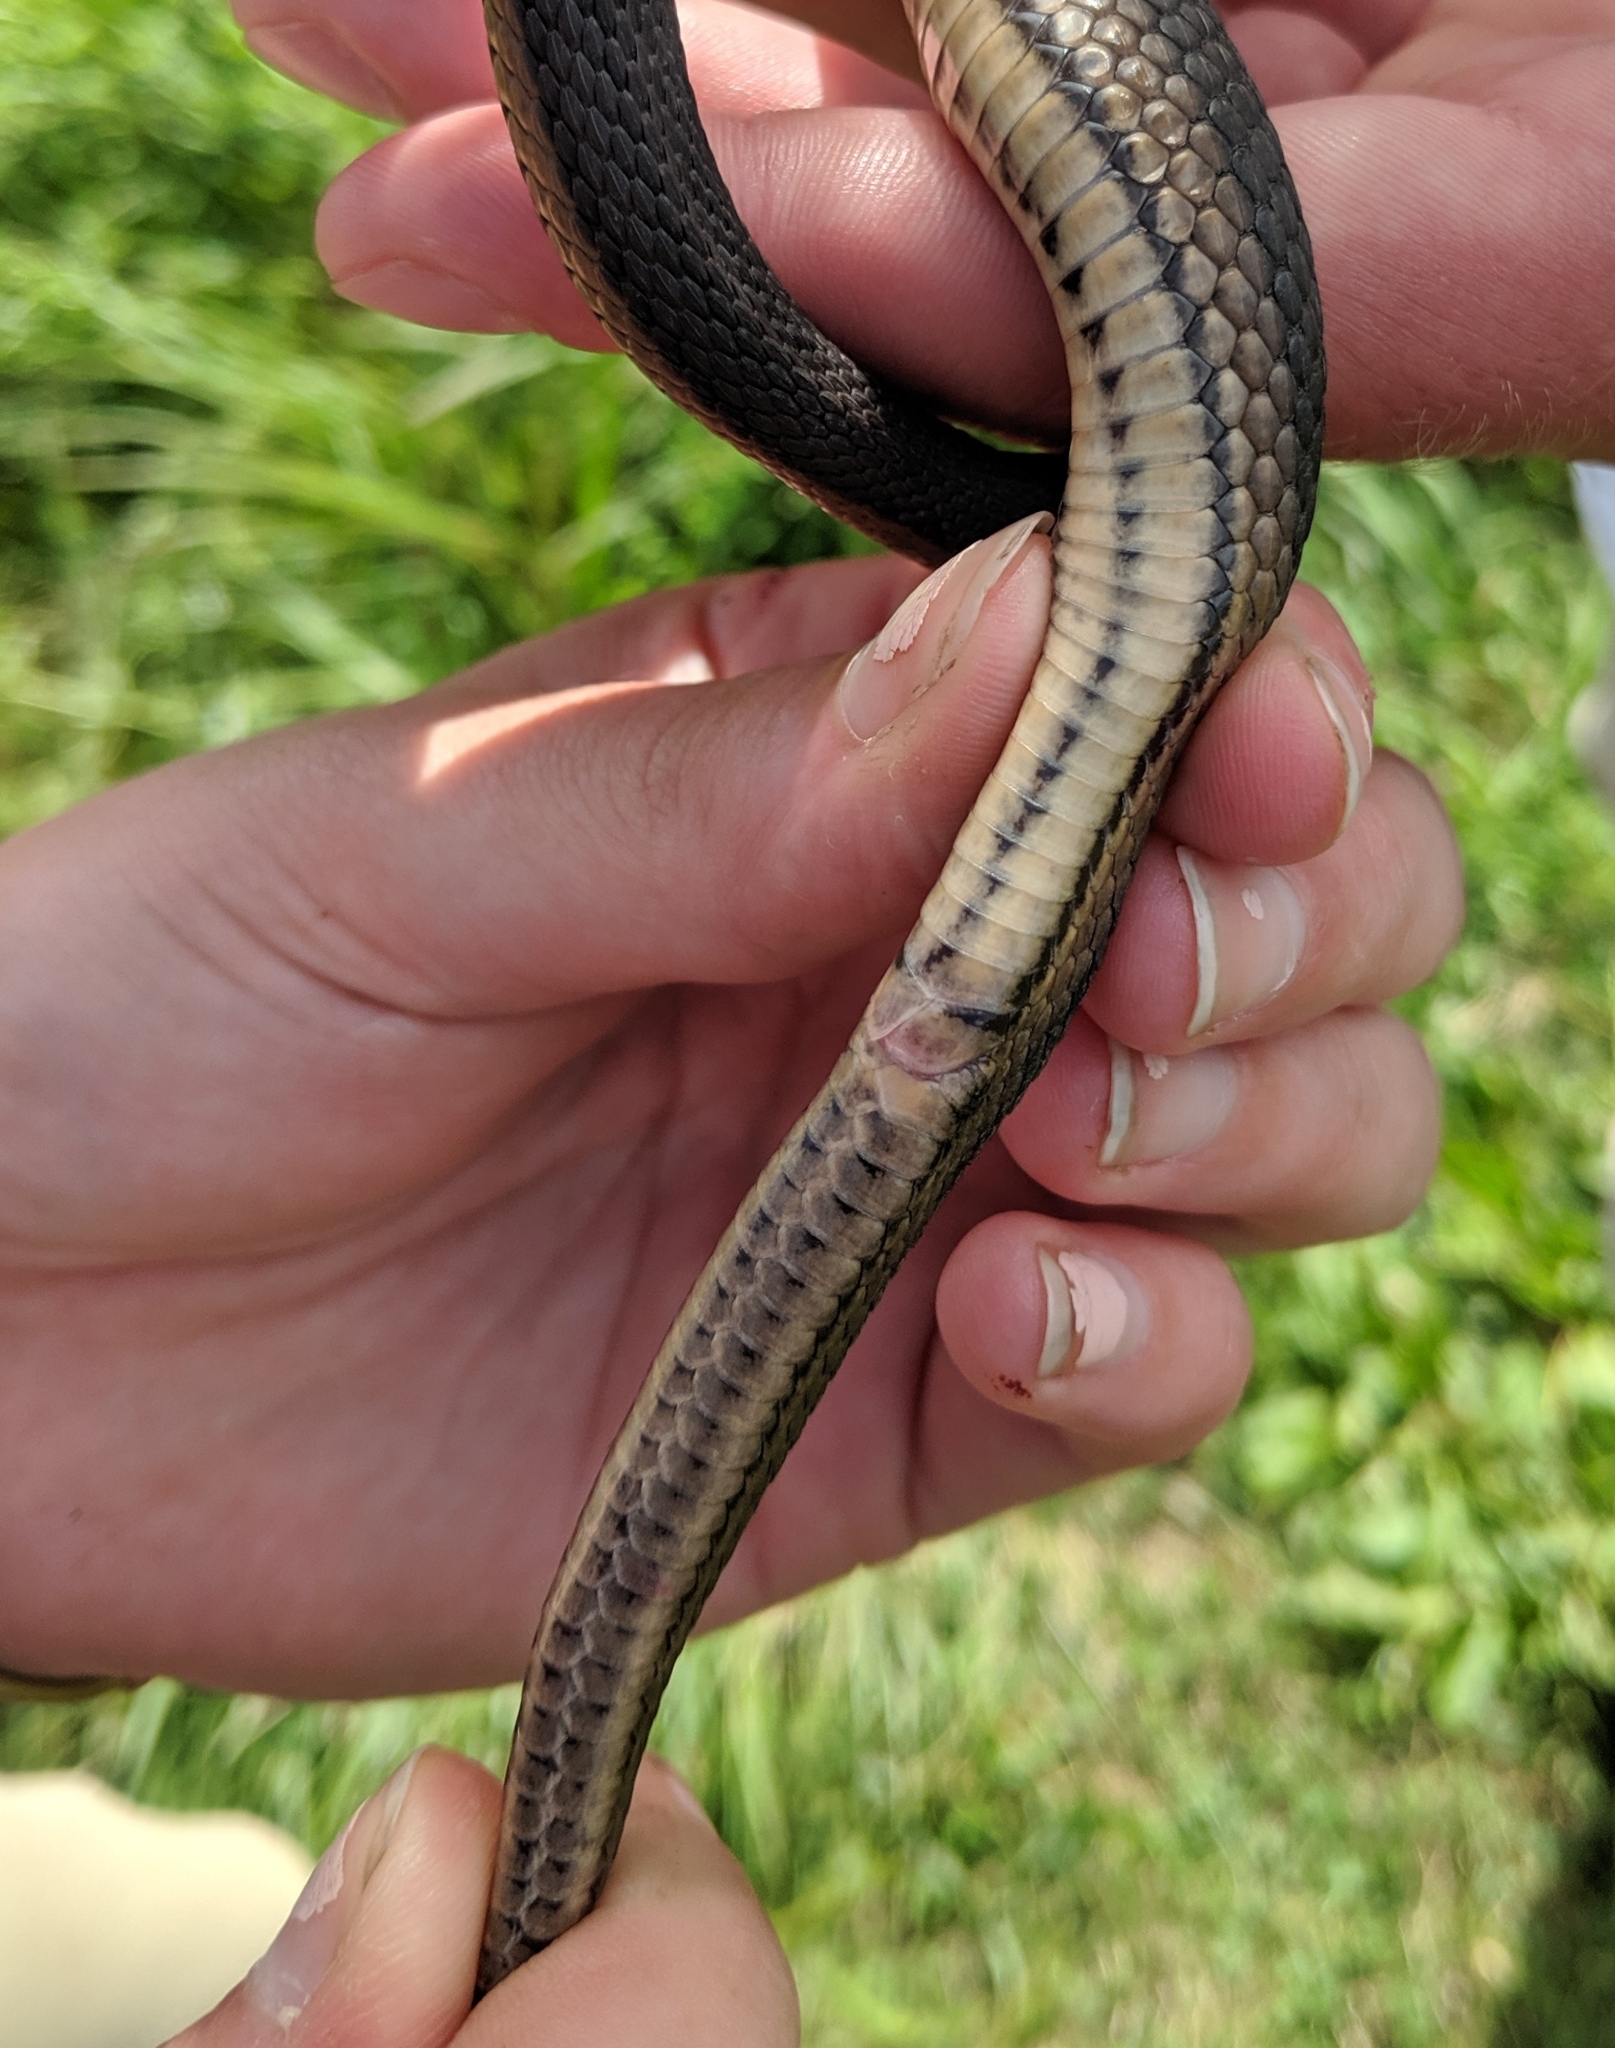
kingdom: Animalia
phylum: Chordata
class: Squamata
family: Colubridae
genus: Regina
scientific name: Regina grahamii
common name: Graham's crayfish snake
